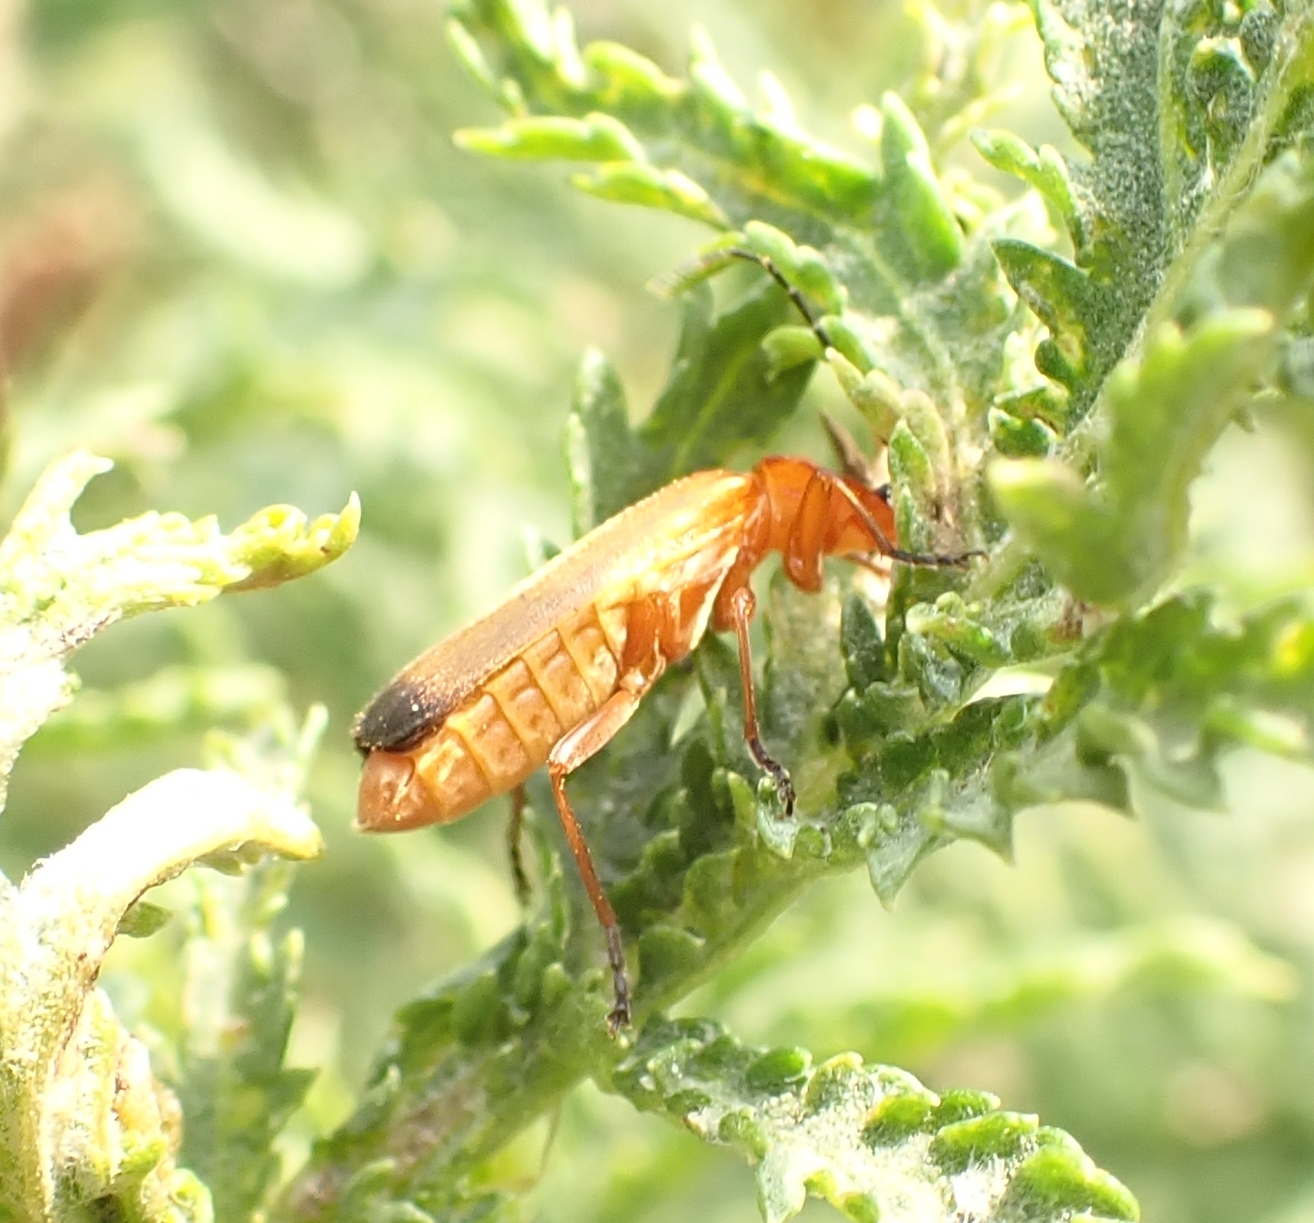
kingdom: Animalia
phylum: Arthropoda
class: Insecta
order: Coleoptera
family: Cantharidae
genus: Rhagonycha
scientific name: Rhagonycha fulva
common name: Common red soldier beetle
